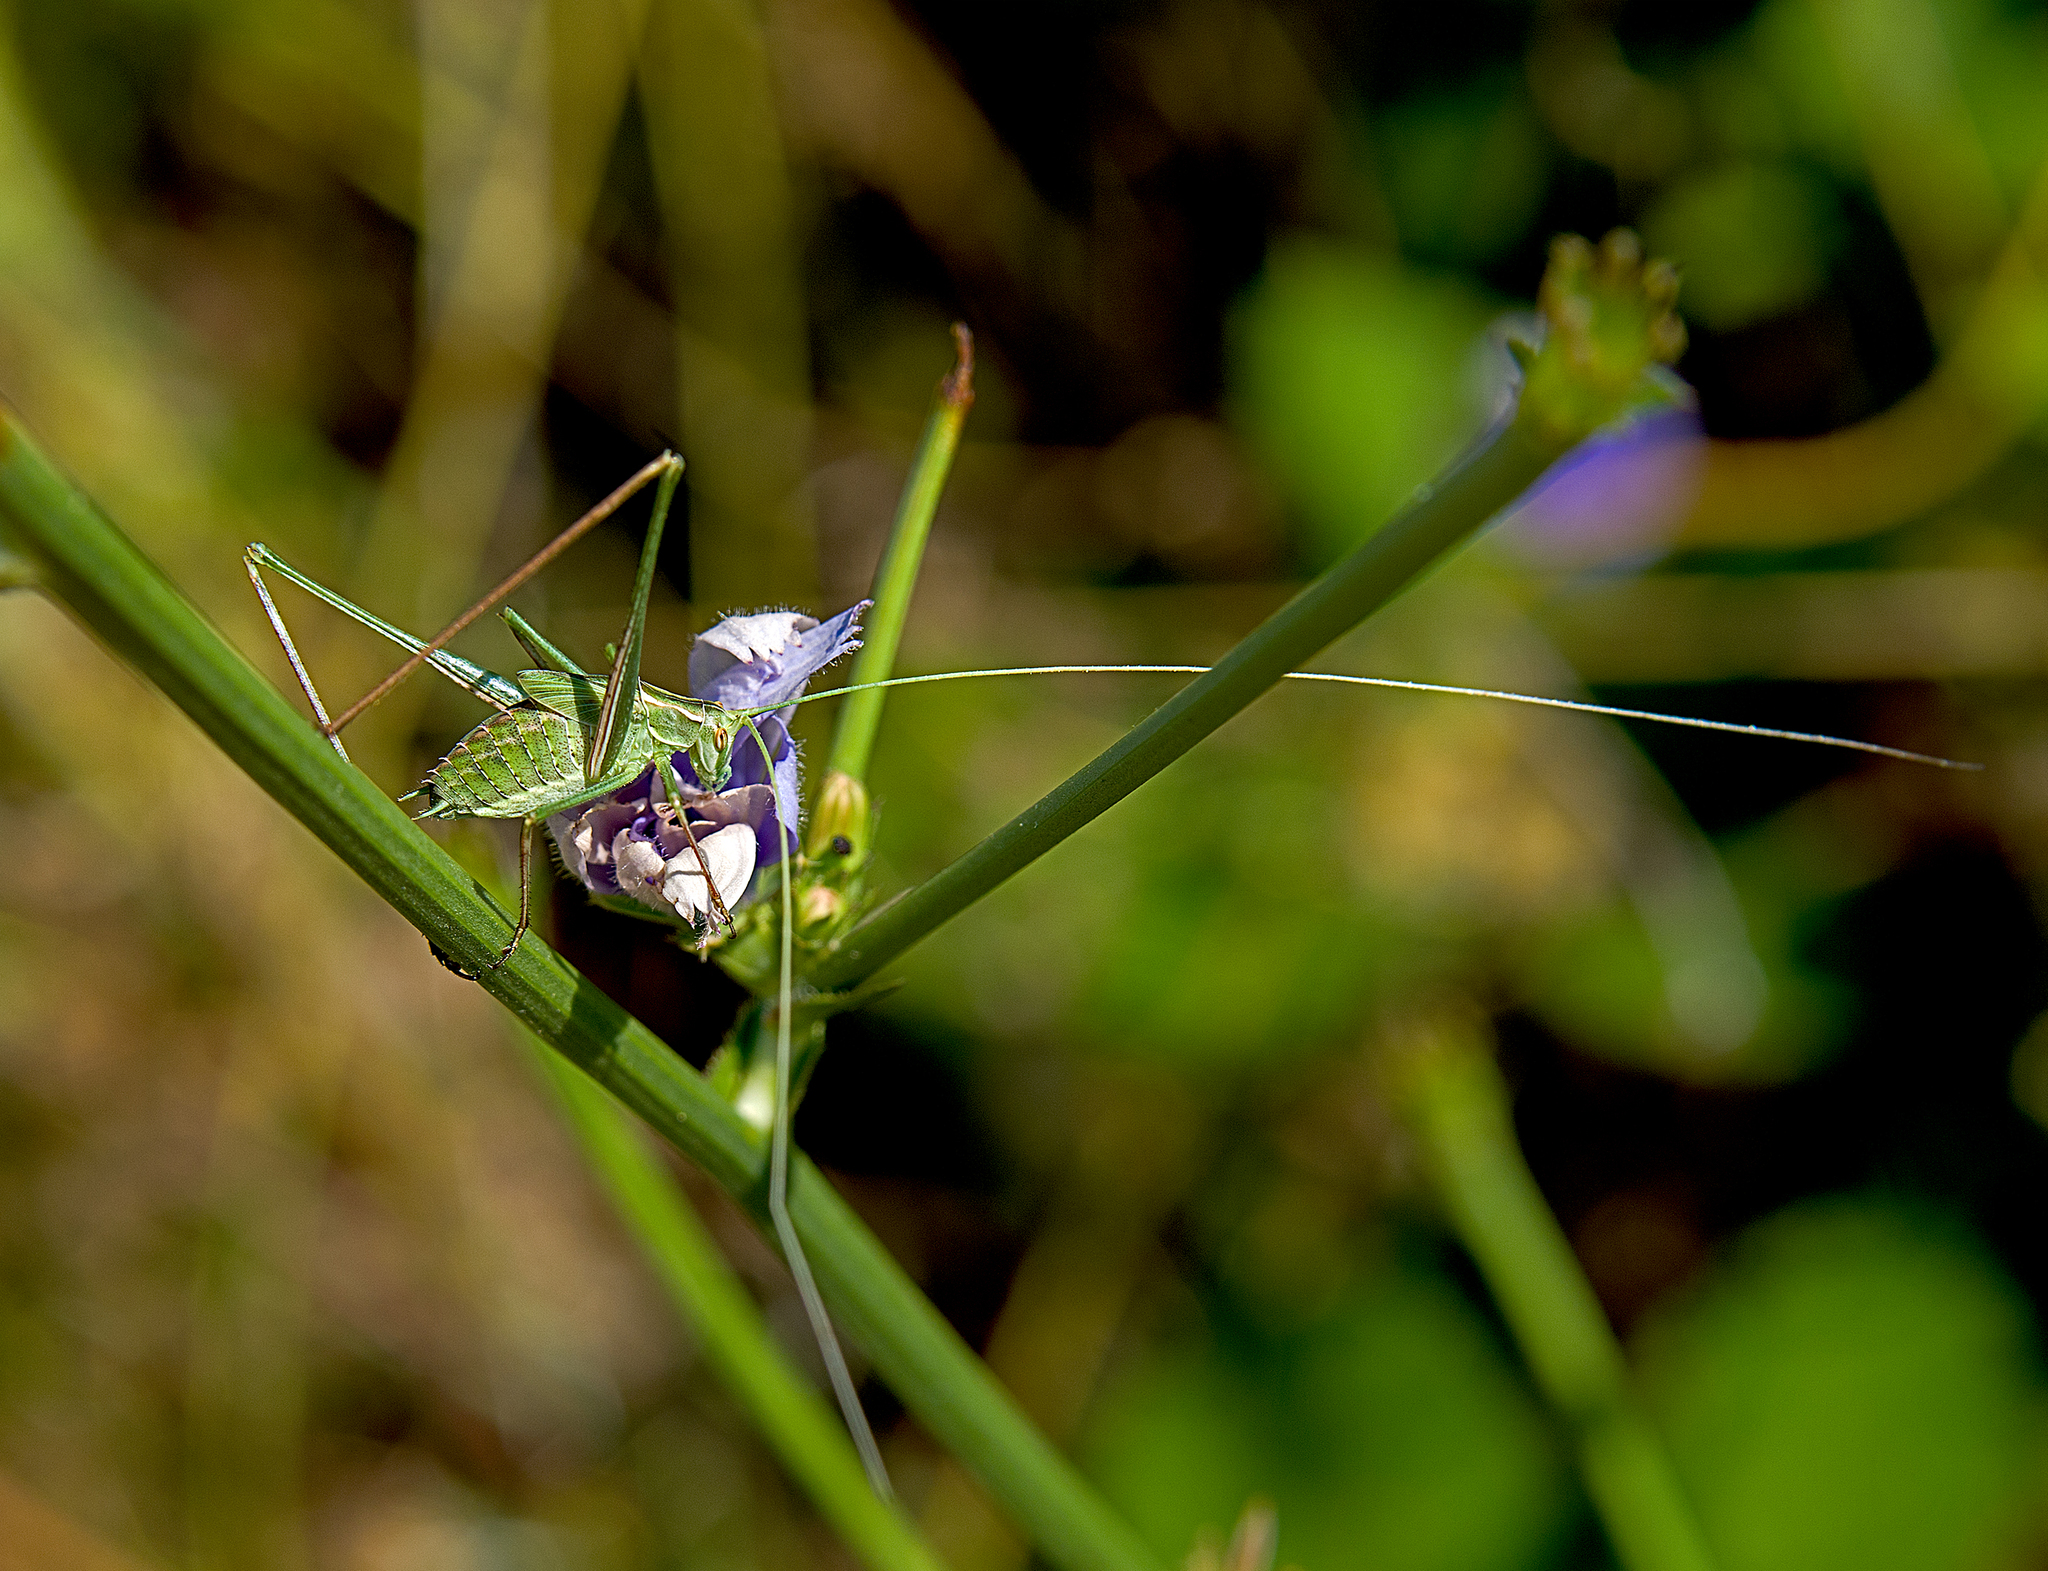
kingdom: Animalia
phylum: Arthropoda
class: Insecta
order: Orthoptera
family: Tettigoniidae
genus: Tylopsis
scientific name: Tylopsis lilifolia
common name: Lily bush-cricket
